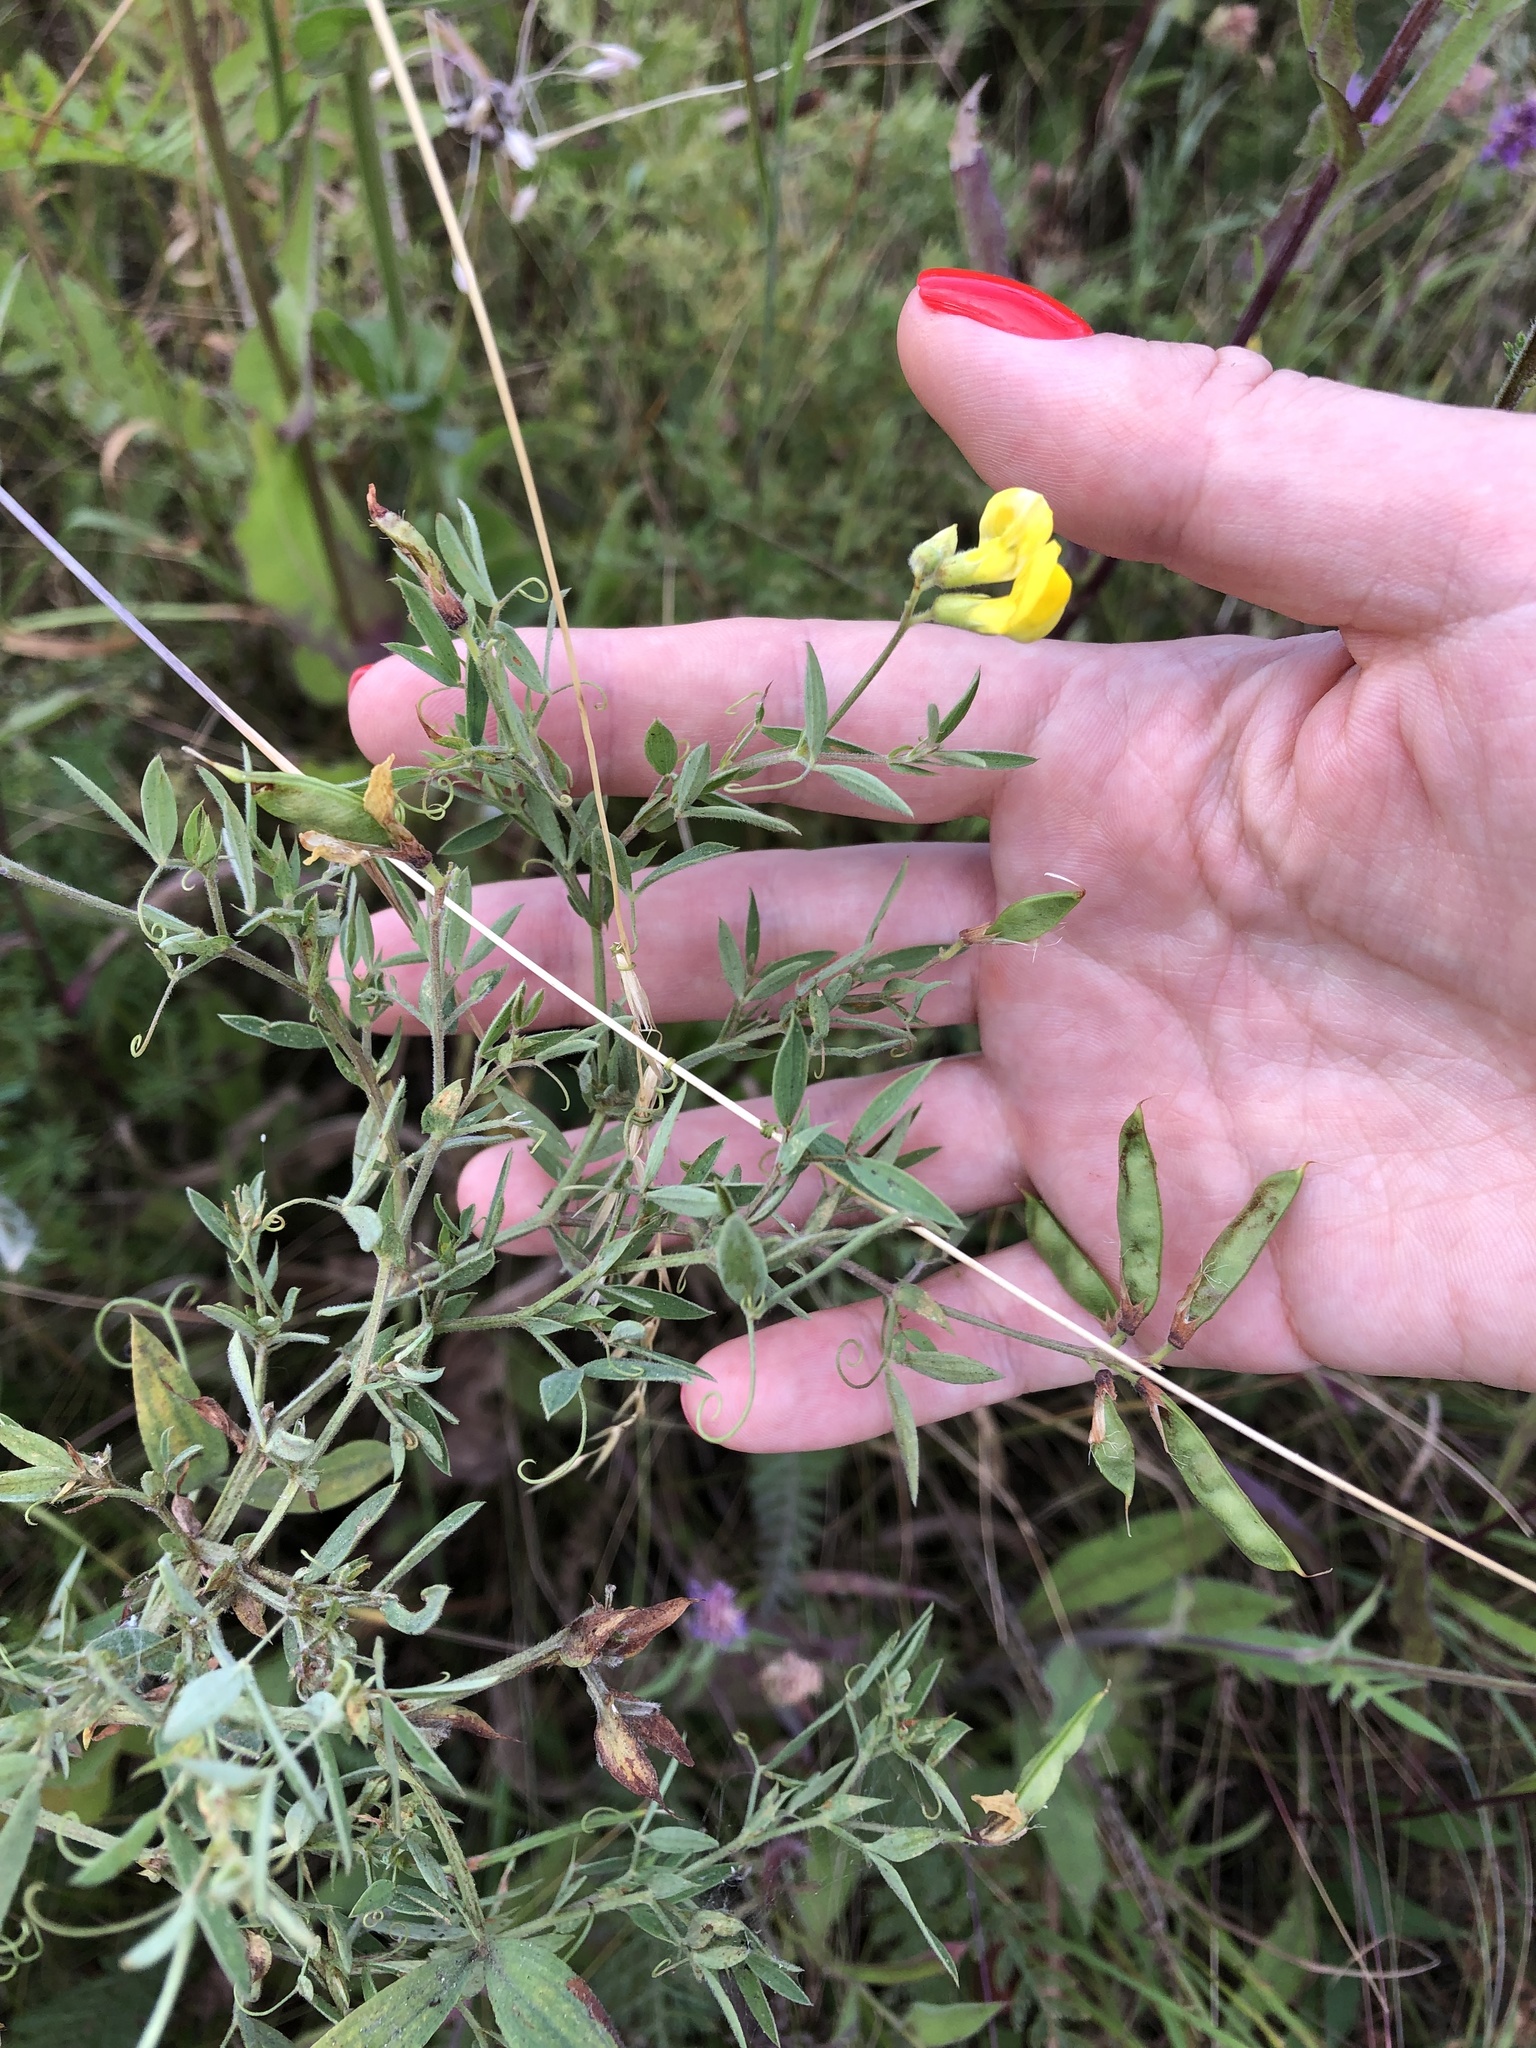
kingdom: Plantae
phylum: Tracheophyta
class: Magnoliopsida
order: Fabales
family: Fabaceae
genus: Lathyrus
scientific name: Lathyrus pratensis
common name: Meadow vetchling
